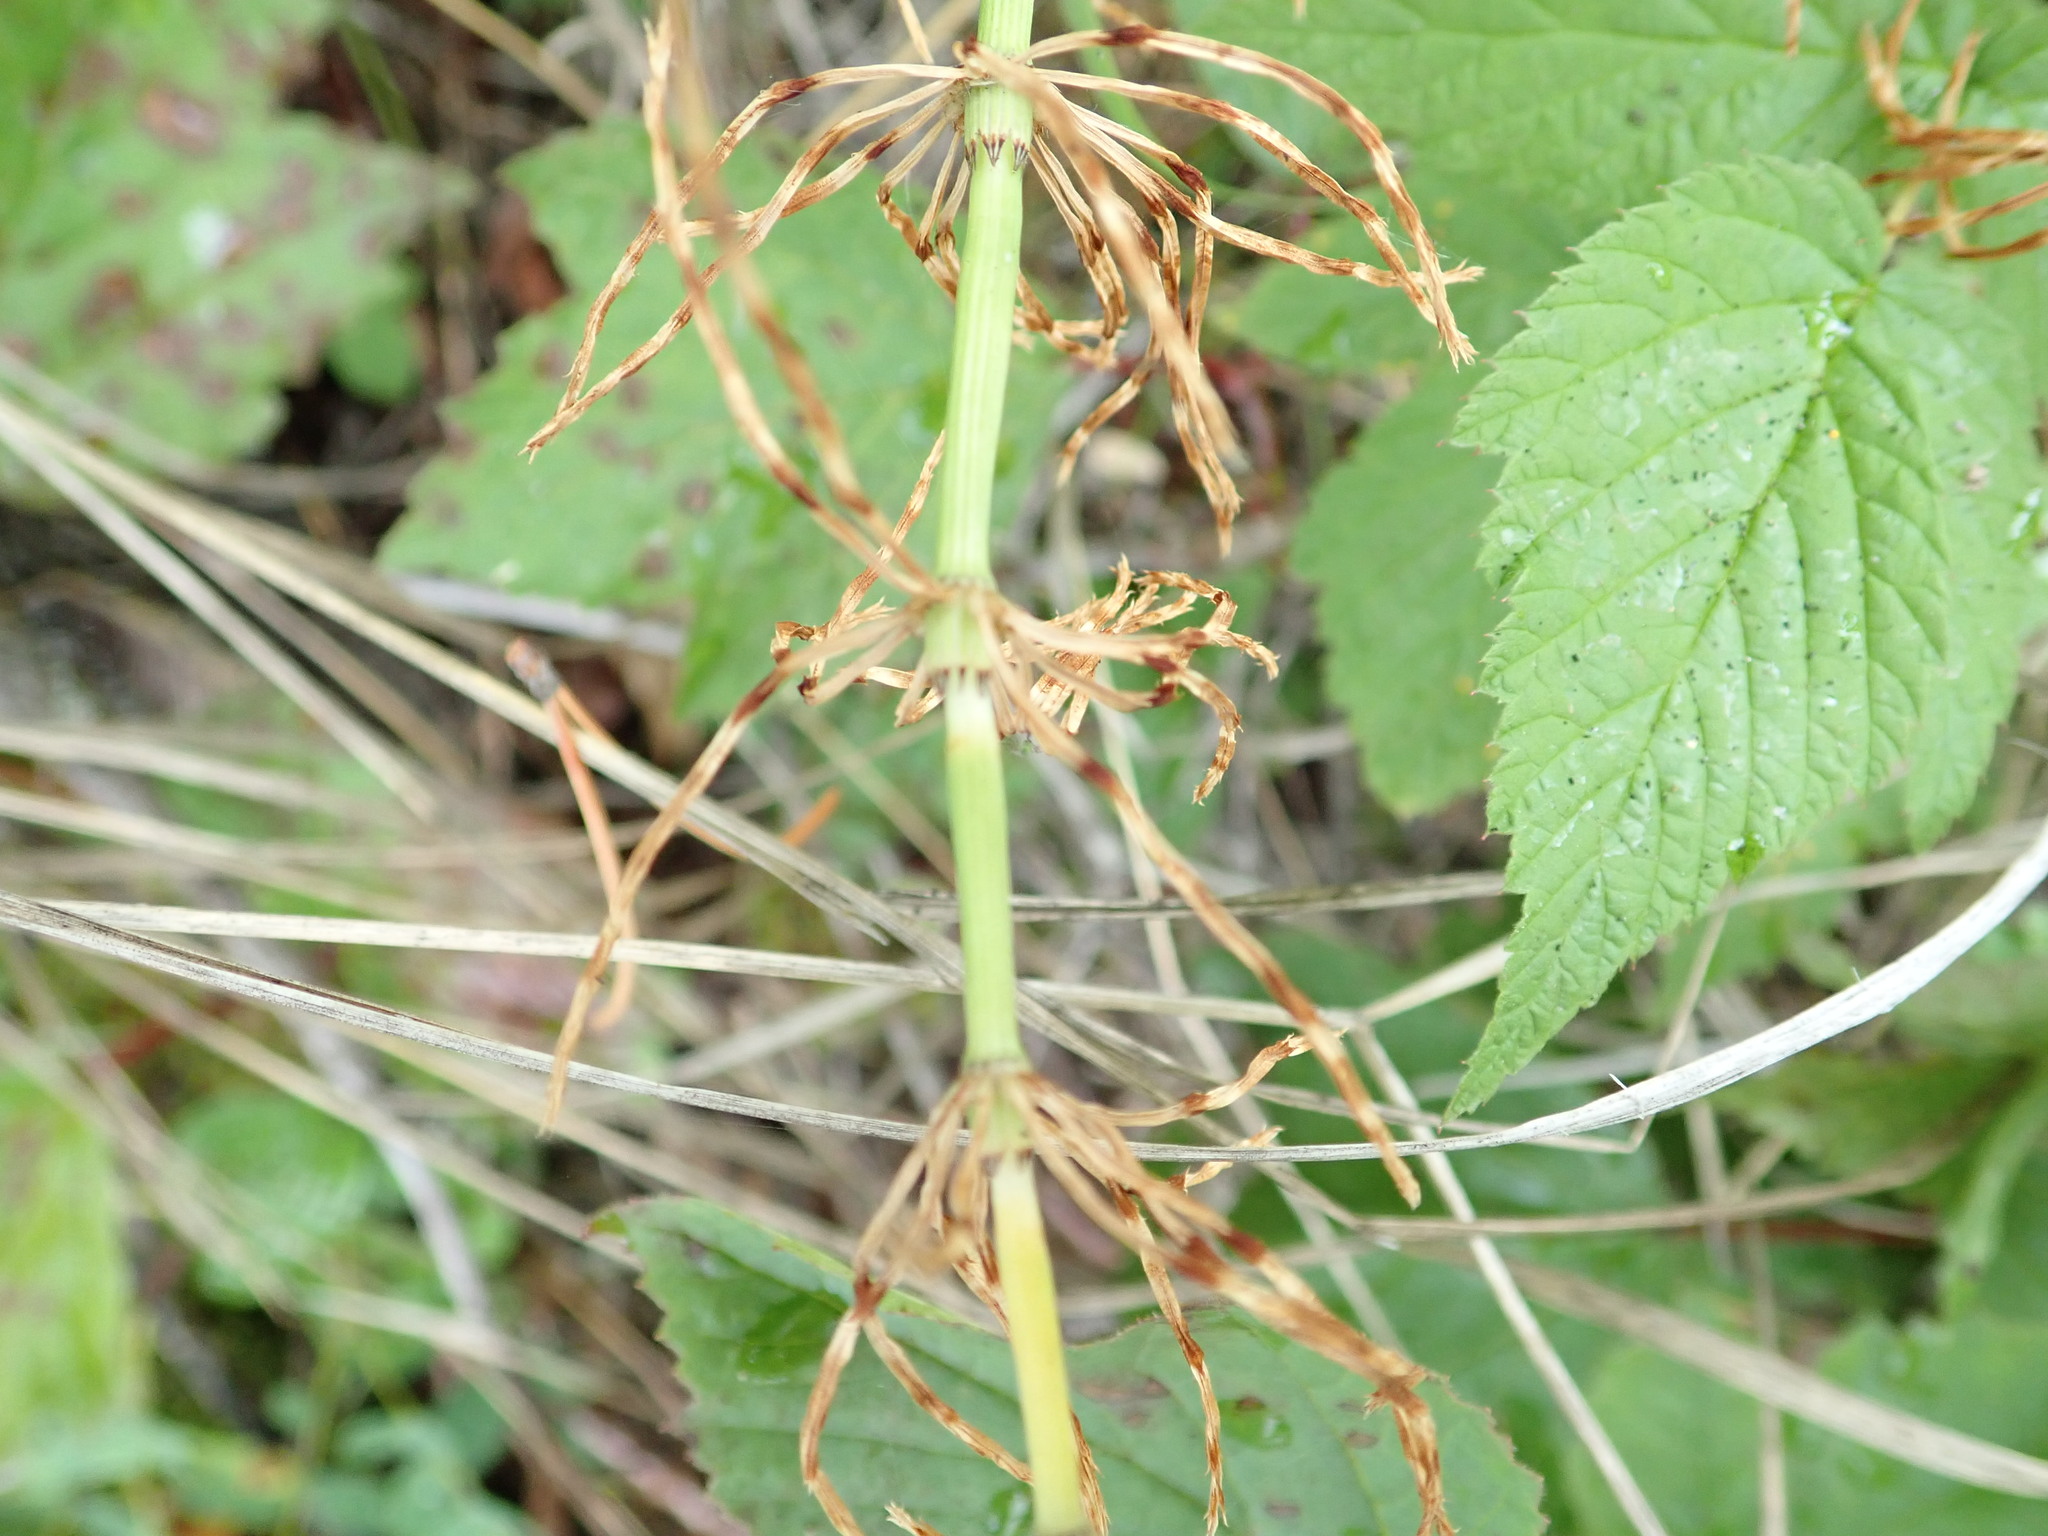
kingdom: Plantae
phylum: Tracheophyta
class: Polypodiopsida
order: Equisetales
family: Equisetaceae
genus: Equisetum
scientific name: Equisetum arvense
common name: Field horsetail
